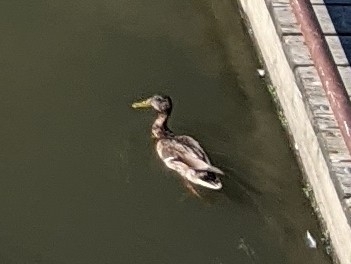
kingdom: Animalia
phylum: Chordata
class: Aves
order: Anseriformes
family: Anatidae
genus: Anas
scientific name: Anas platyrhynchos
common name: Mallard
